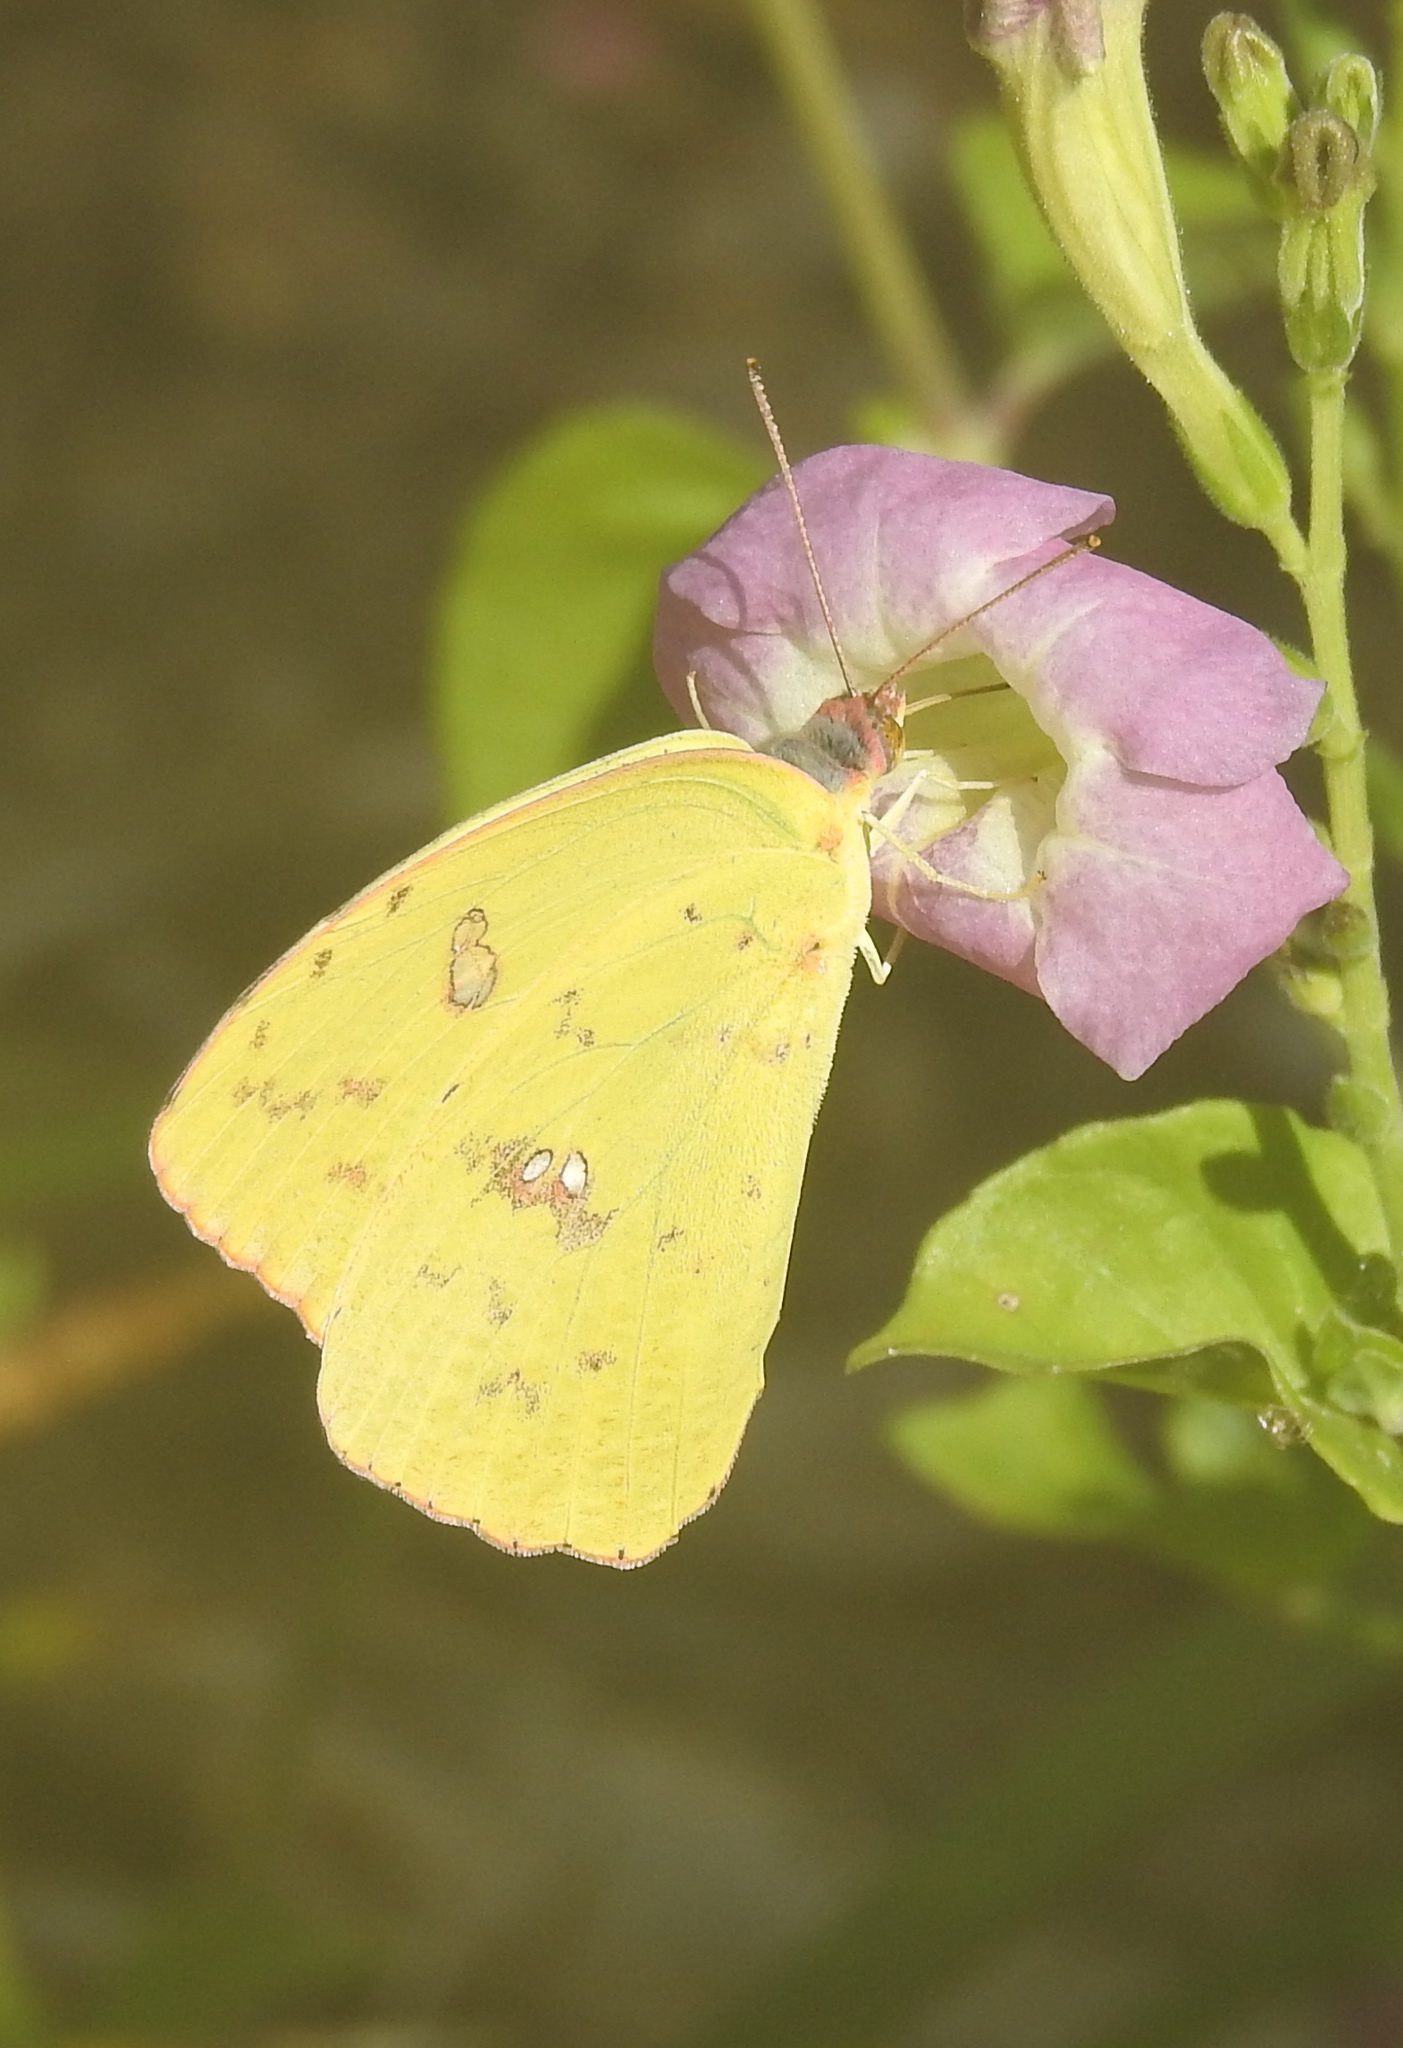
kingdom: Animalia
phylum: Arthropoda
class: Insecta
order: Lepidoptera
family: Pieridae
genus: Phoebis
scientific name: Phoebis sennae
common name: Cloudless sulphur
